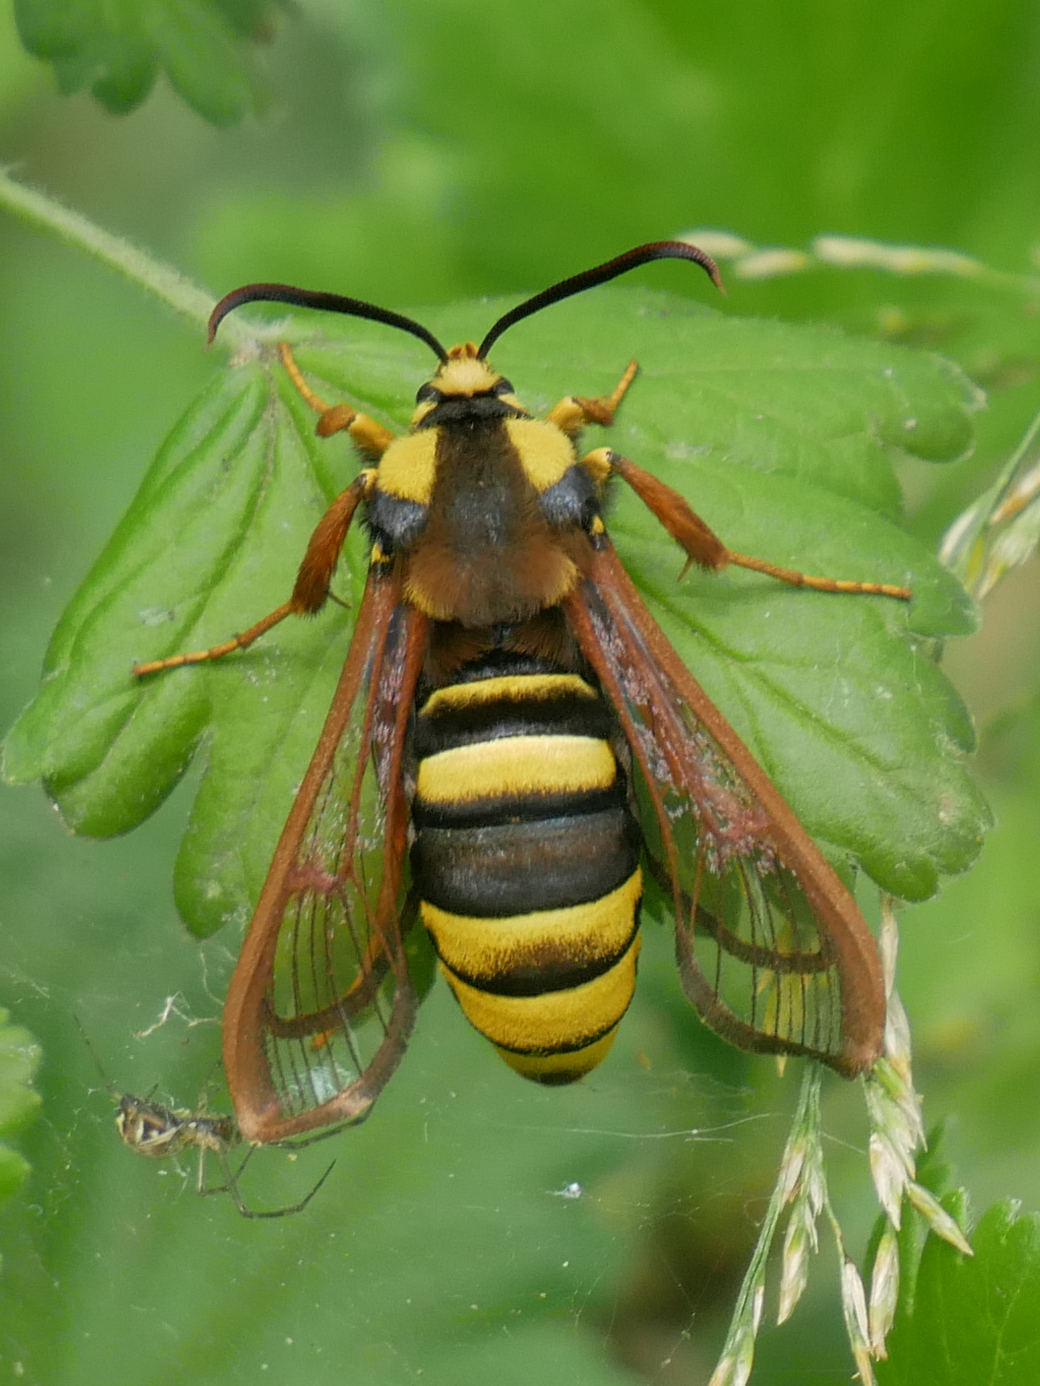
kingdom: Animalia
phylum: Arthropoda
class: Insecta
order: Lepidoptera
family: Sesiidae
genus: Sesia
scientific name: Sesia apiformis
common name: Hornet moth
